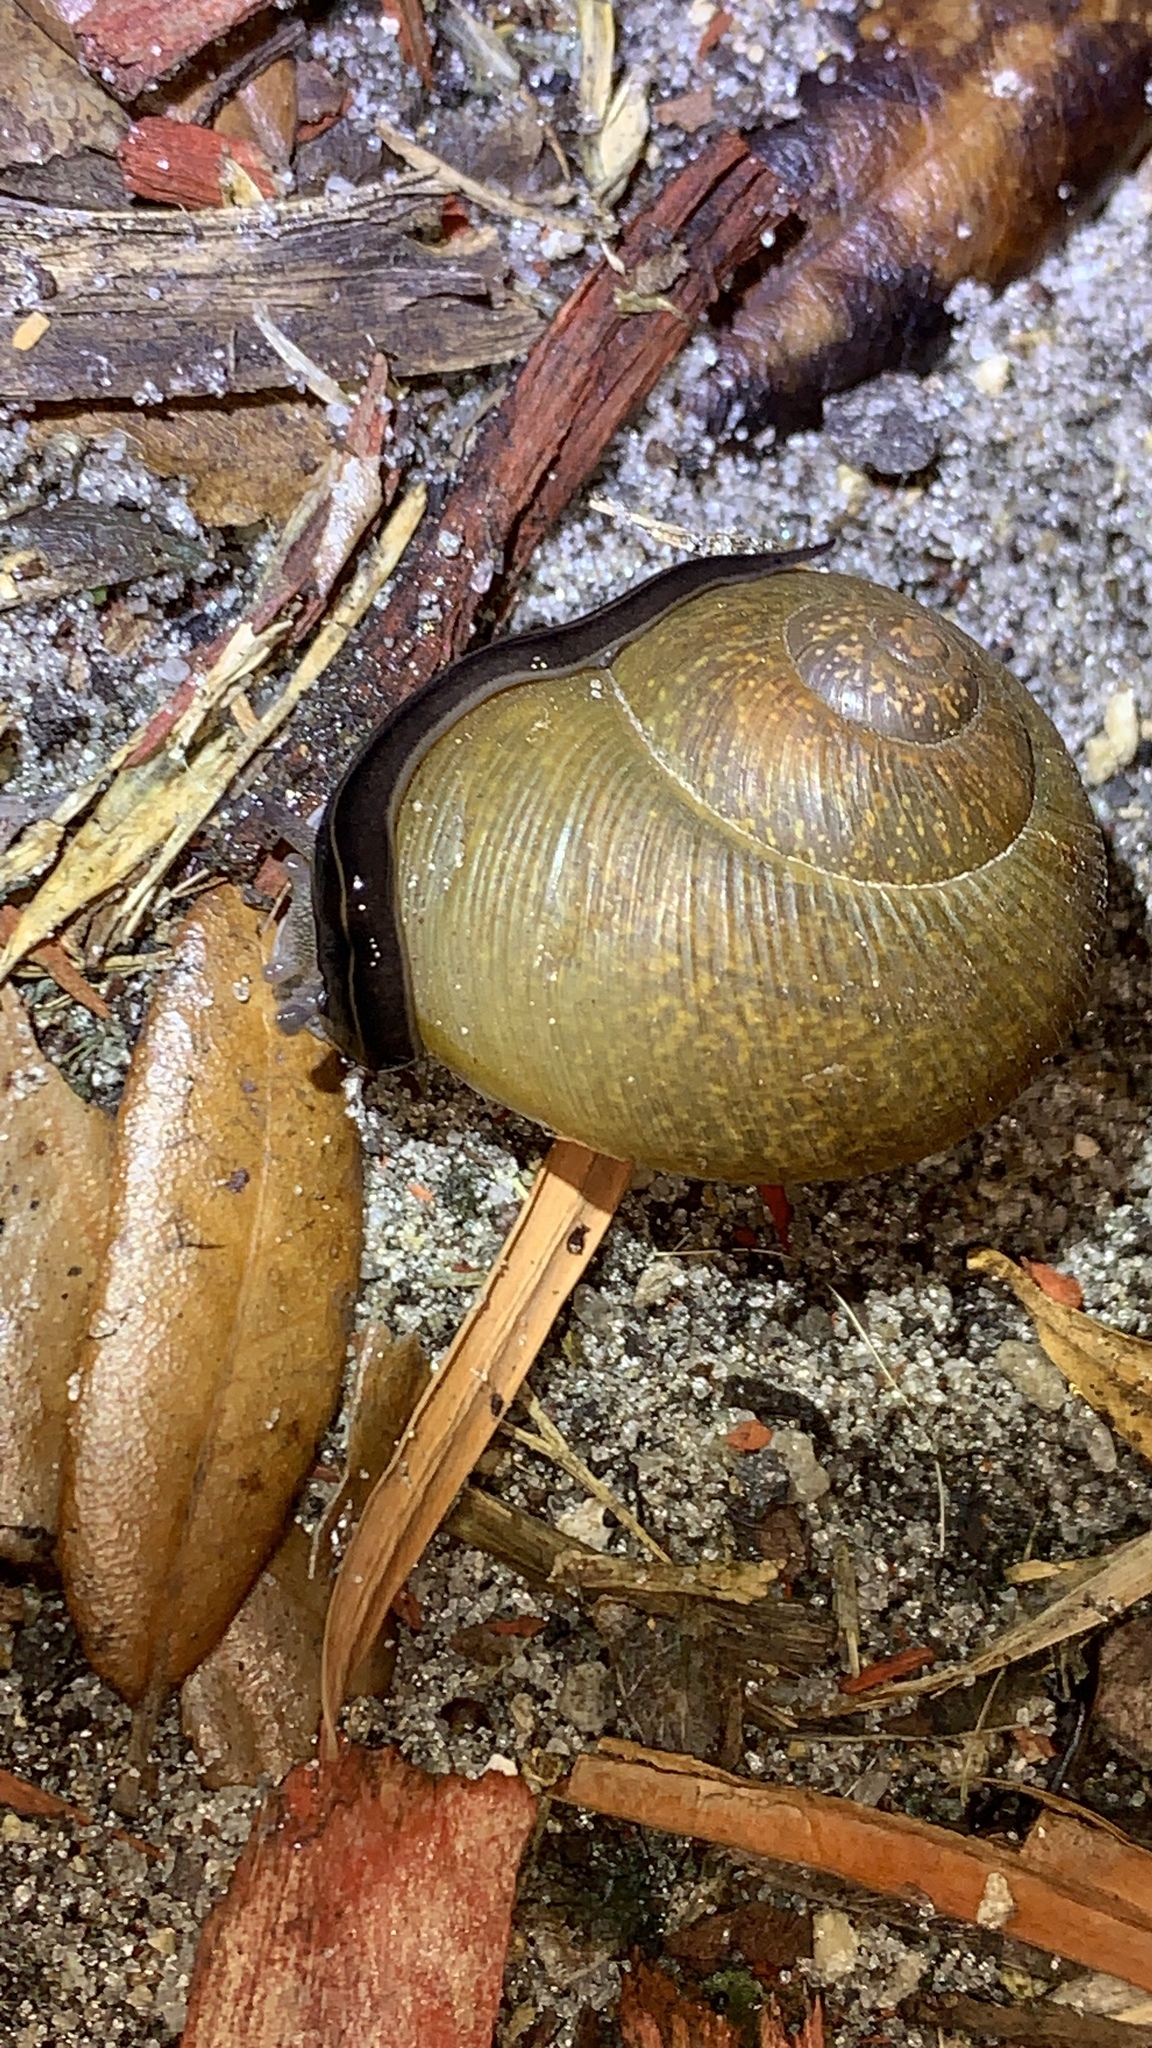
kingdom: Animalia
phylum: Platyhelminthes
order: Tricladida
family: Geoplanidae
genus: Platydemus
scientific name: Platydemus manokwari
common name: New guinea flatworm
